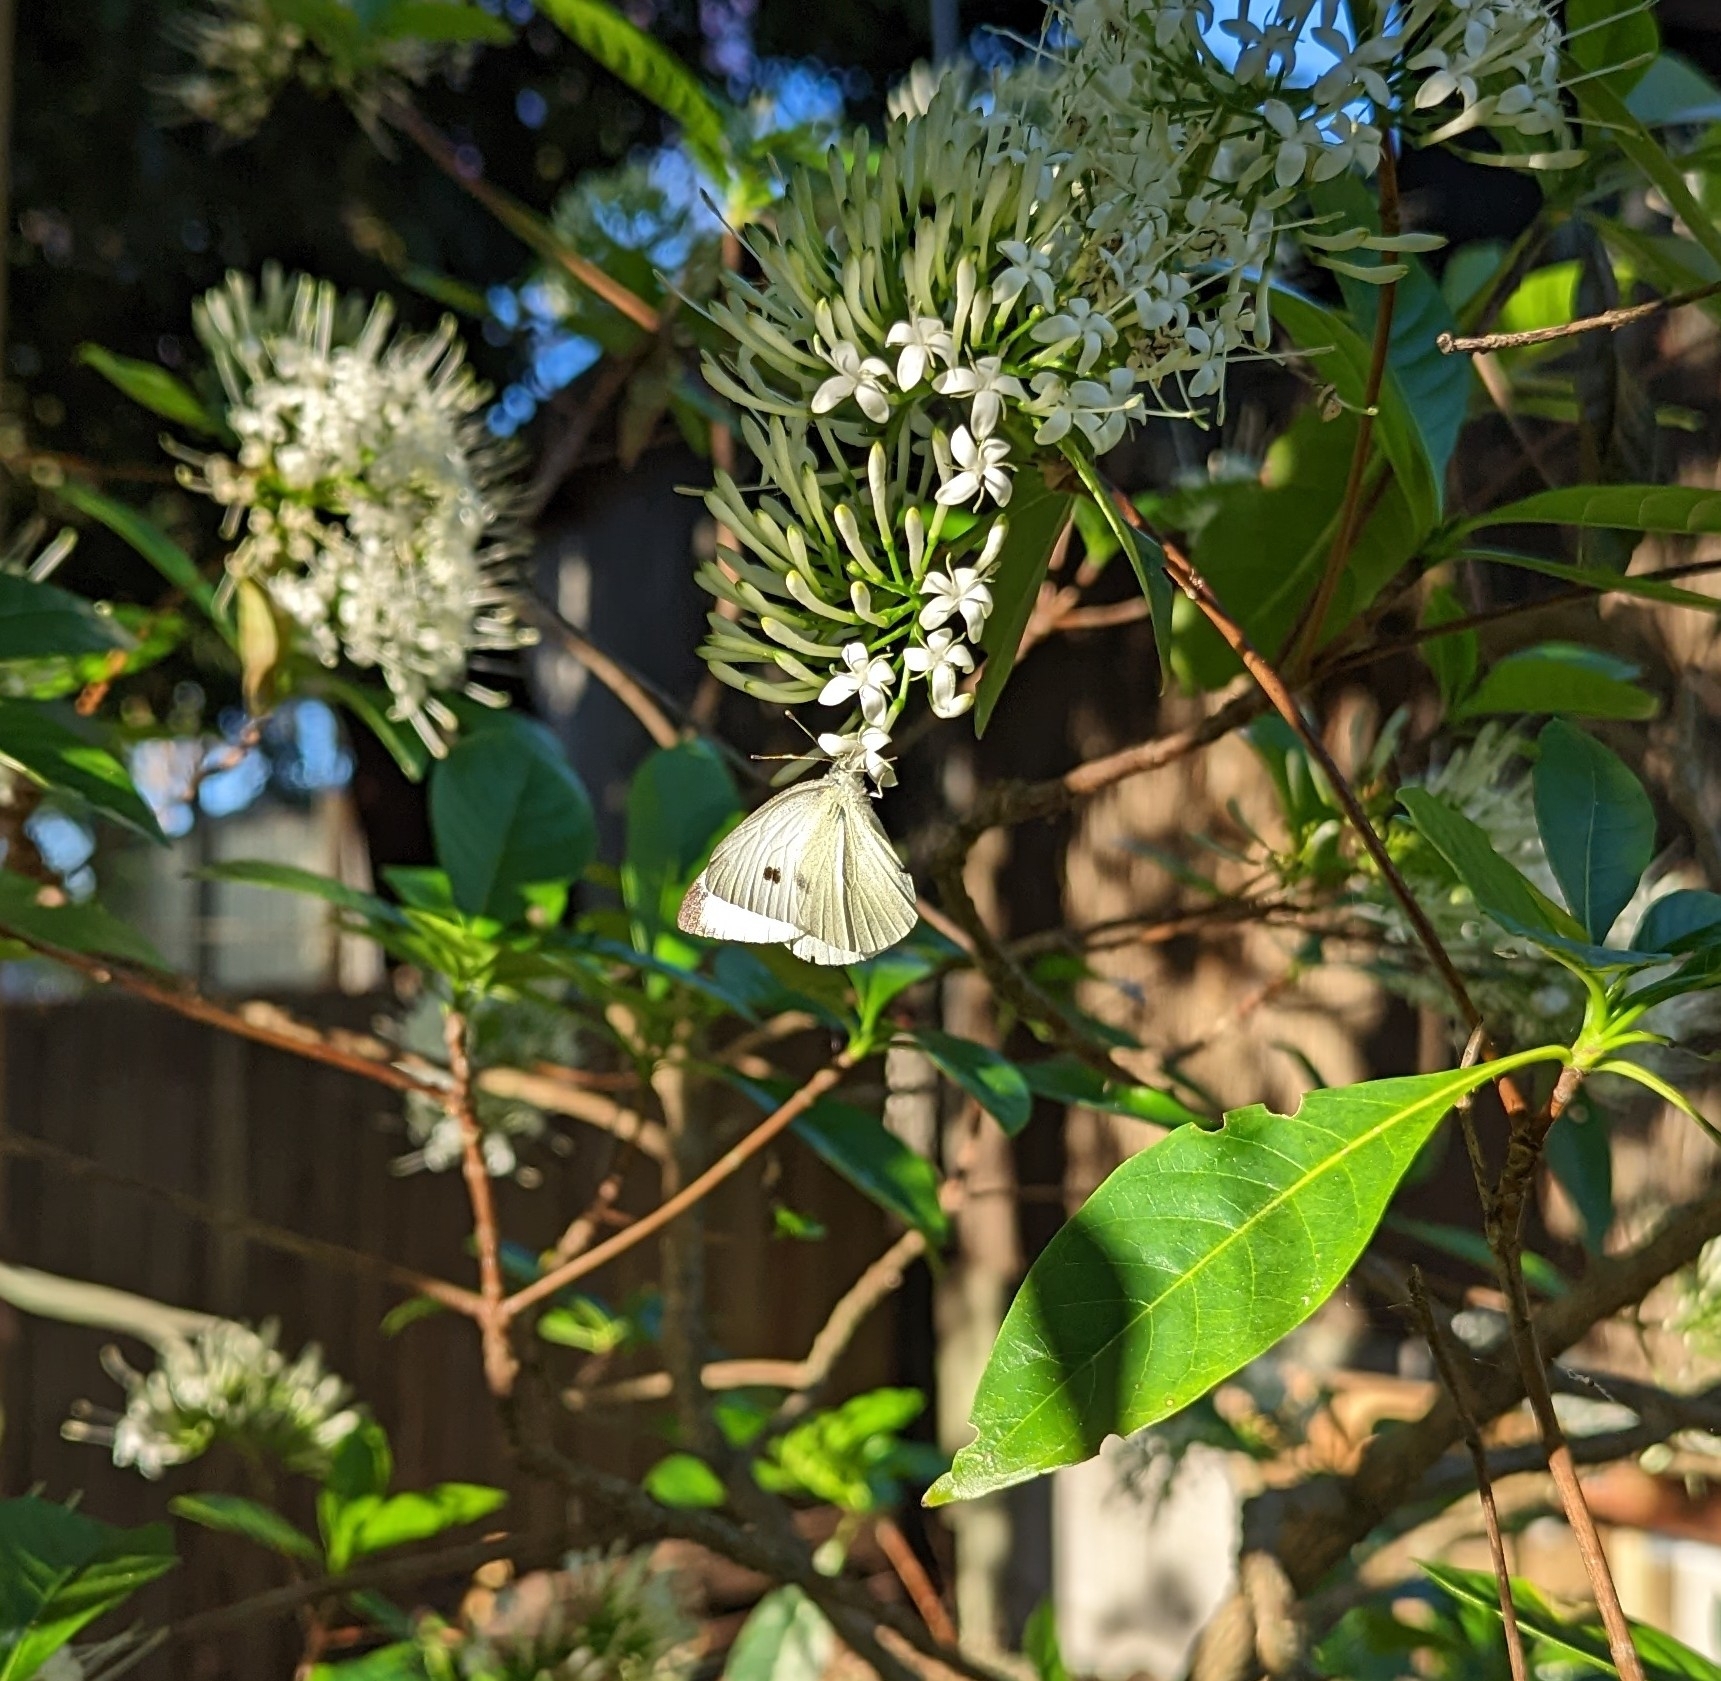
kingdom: Animalia
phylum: Arthropoda
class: Insecta
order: Lepidoptera
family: Pieridae
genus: Pieris
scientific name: Pieris rapae
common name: Small white
